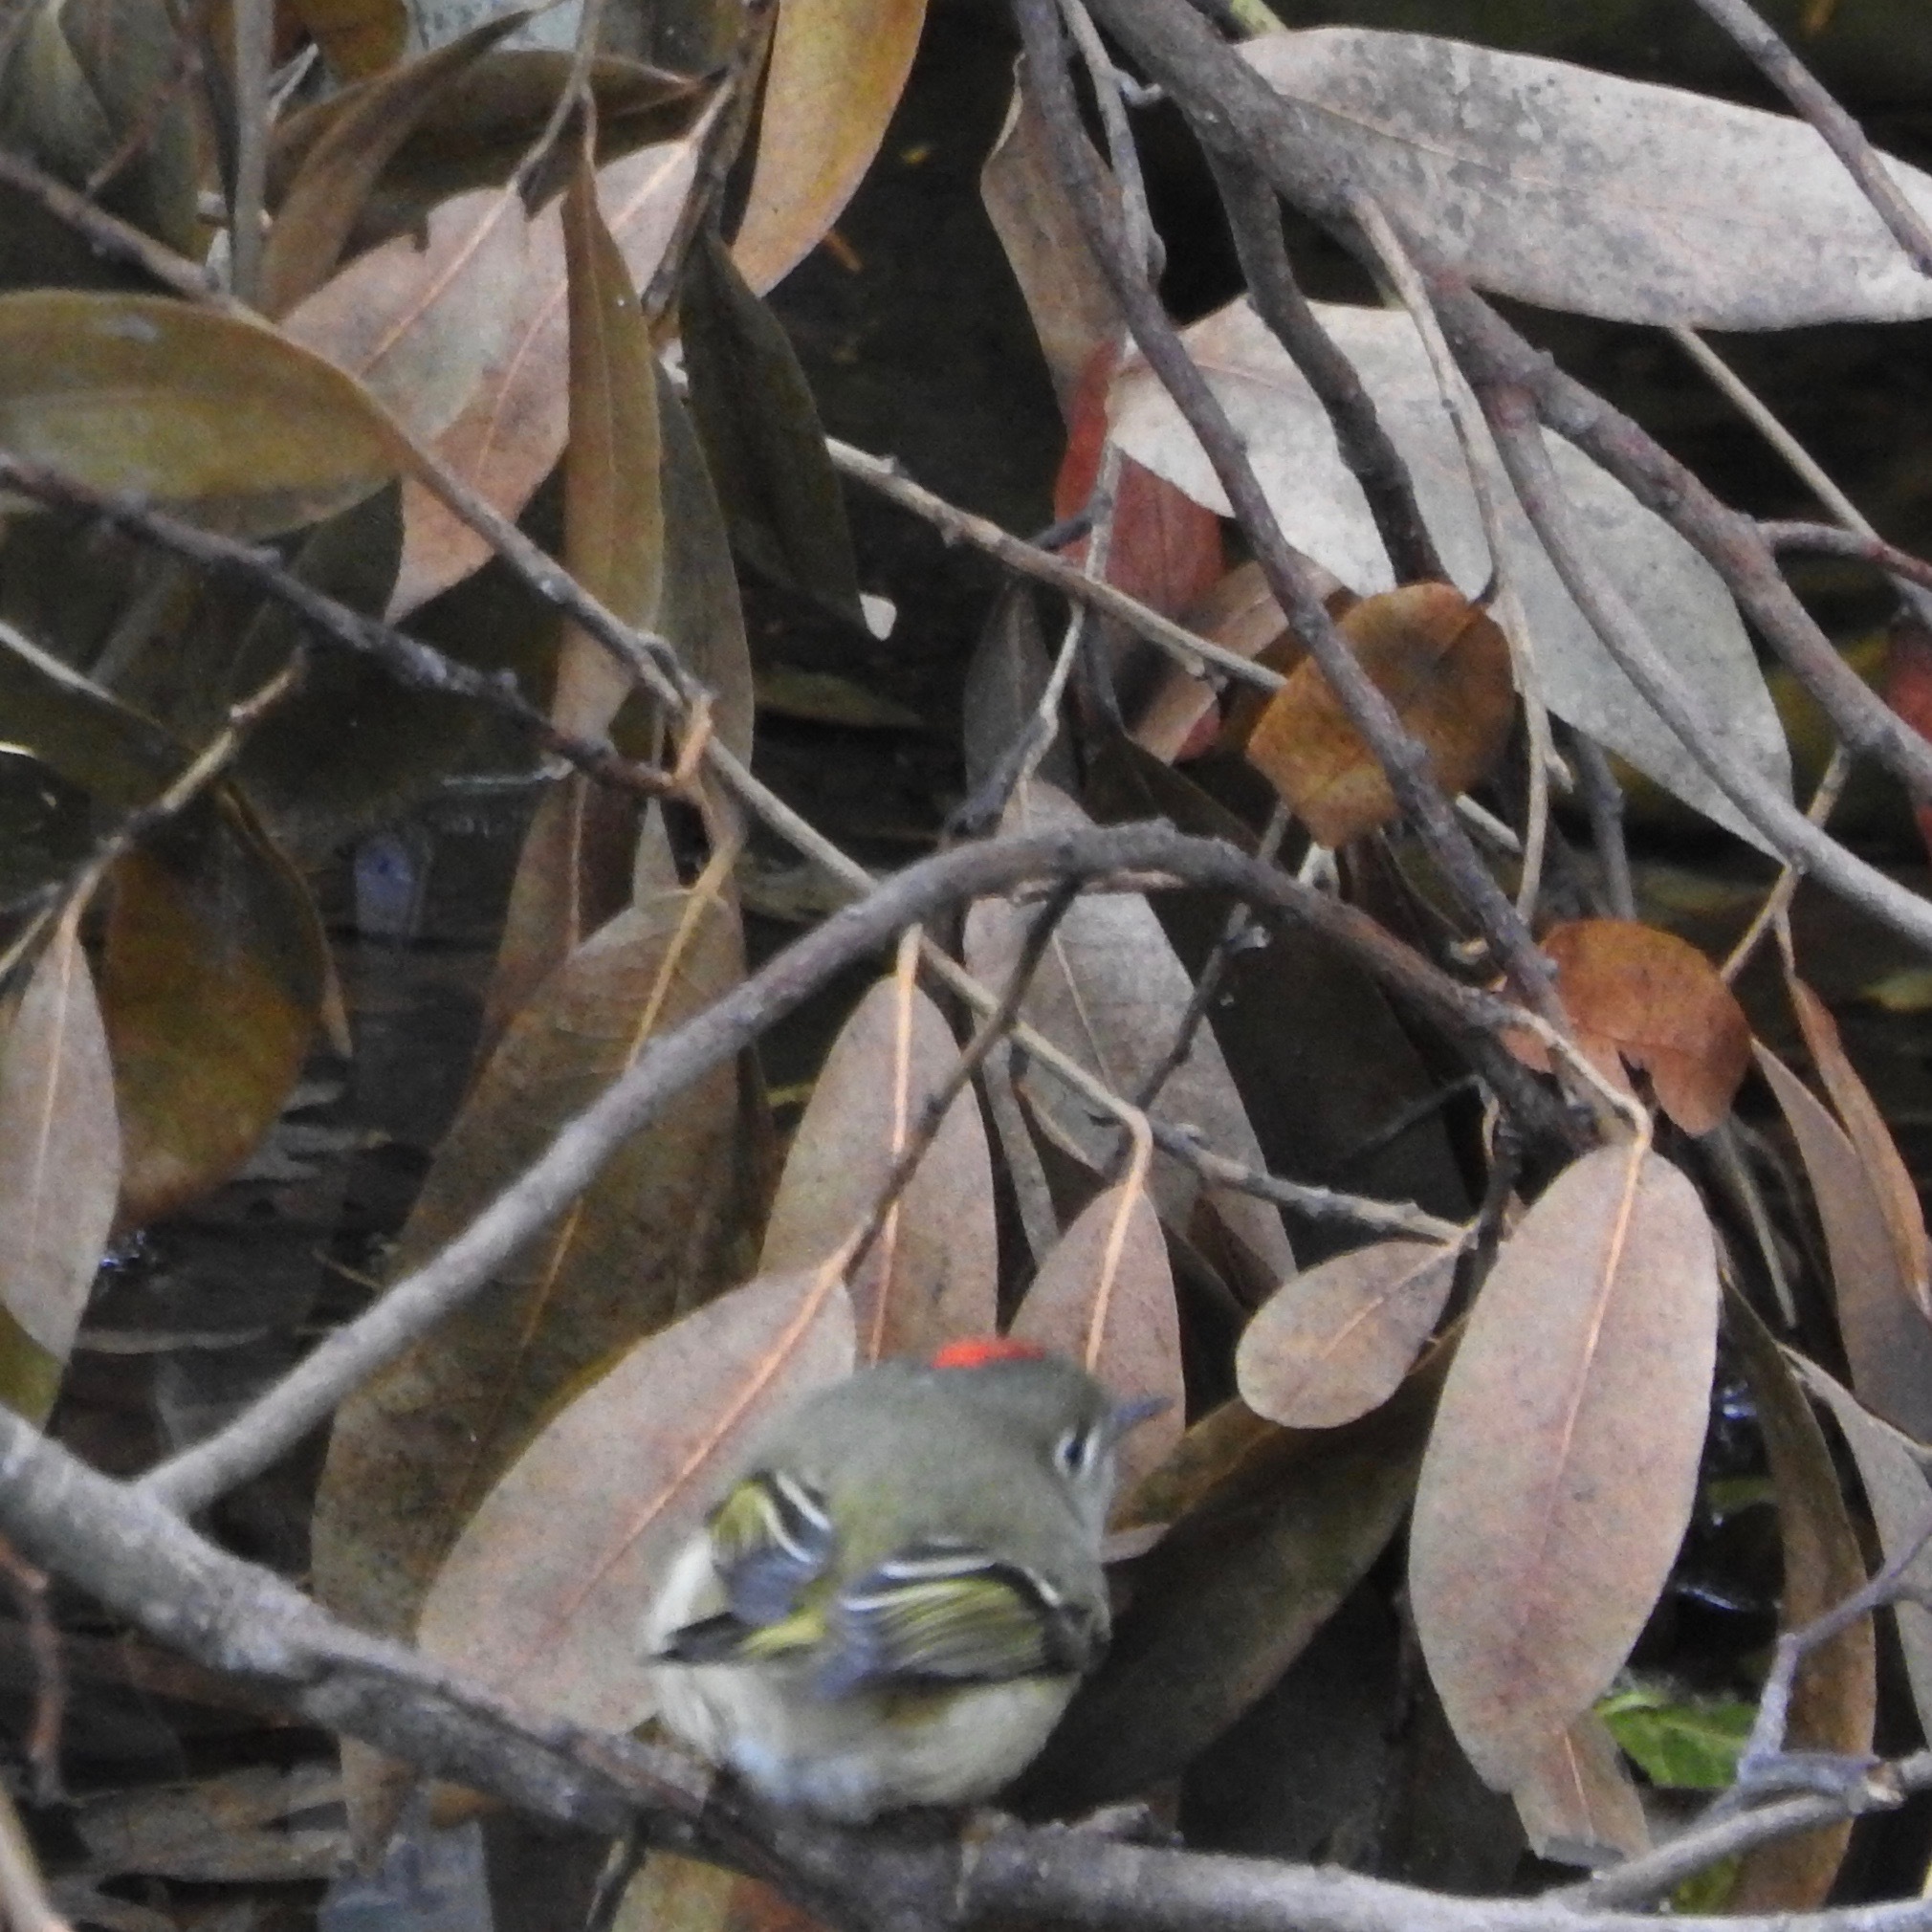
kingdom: Animalia
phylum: Chordata
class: Aves
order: Passeriformes
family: Regulidae
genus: Regulus
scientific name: Regulus calendula
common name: Ruby-crowned kinglet
